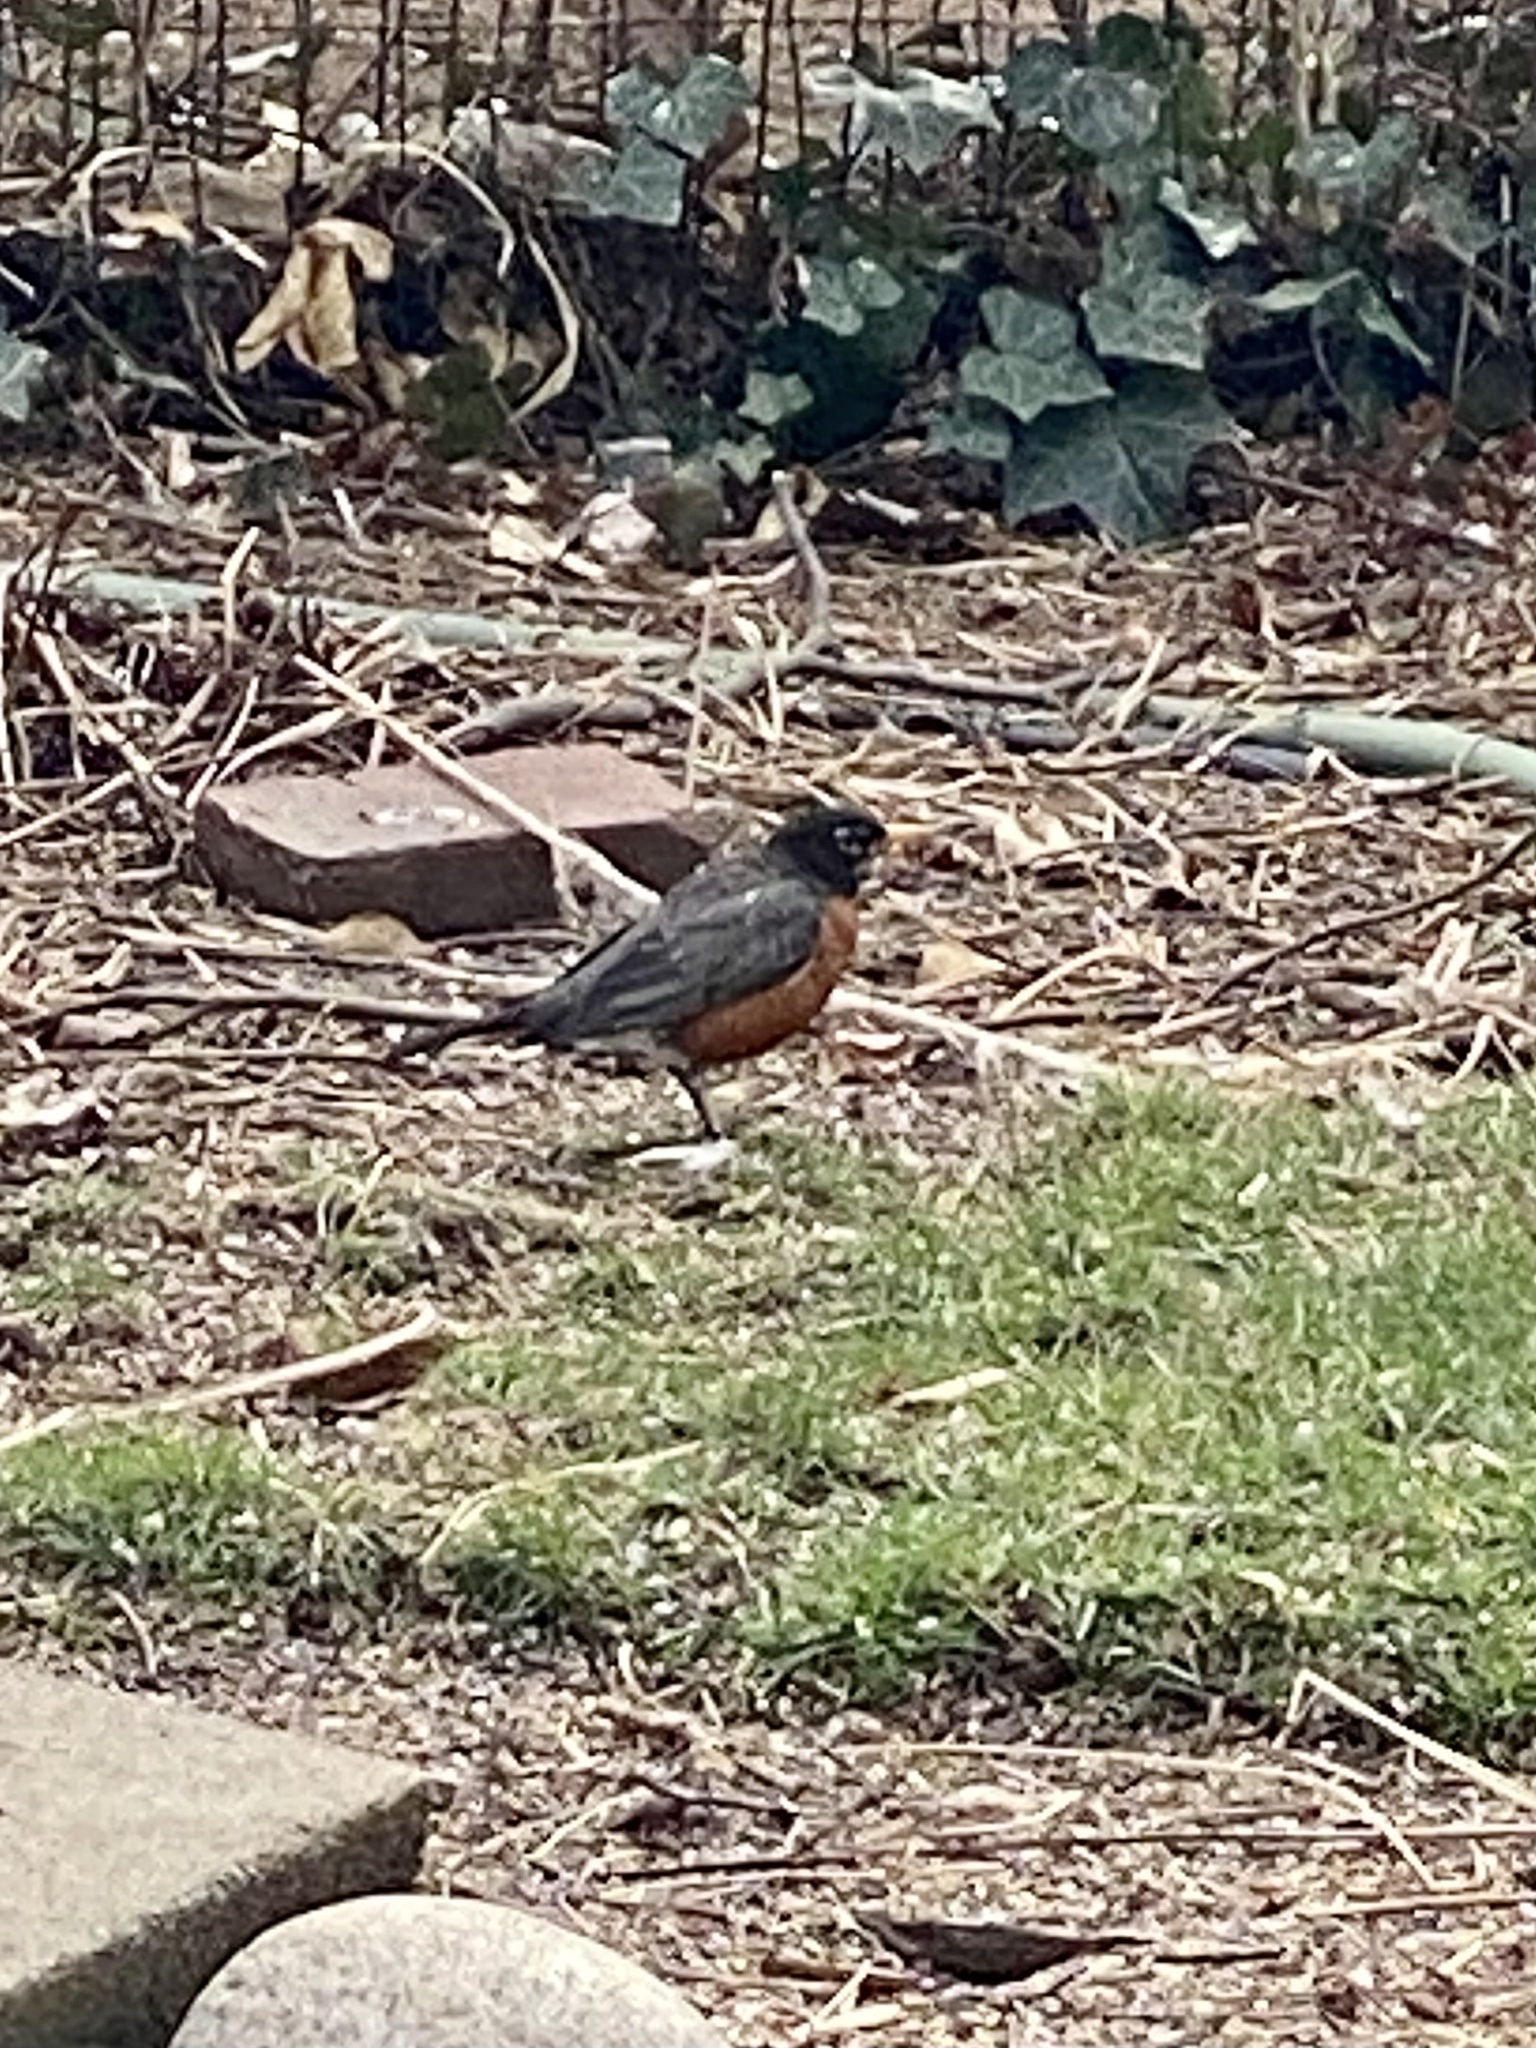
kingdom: Animalia
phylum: Chordata
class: Aves
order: Passeriformes
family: Turdidae
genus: Turdus
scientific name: Turdus migratorius
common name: American robin
